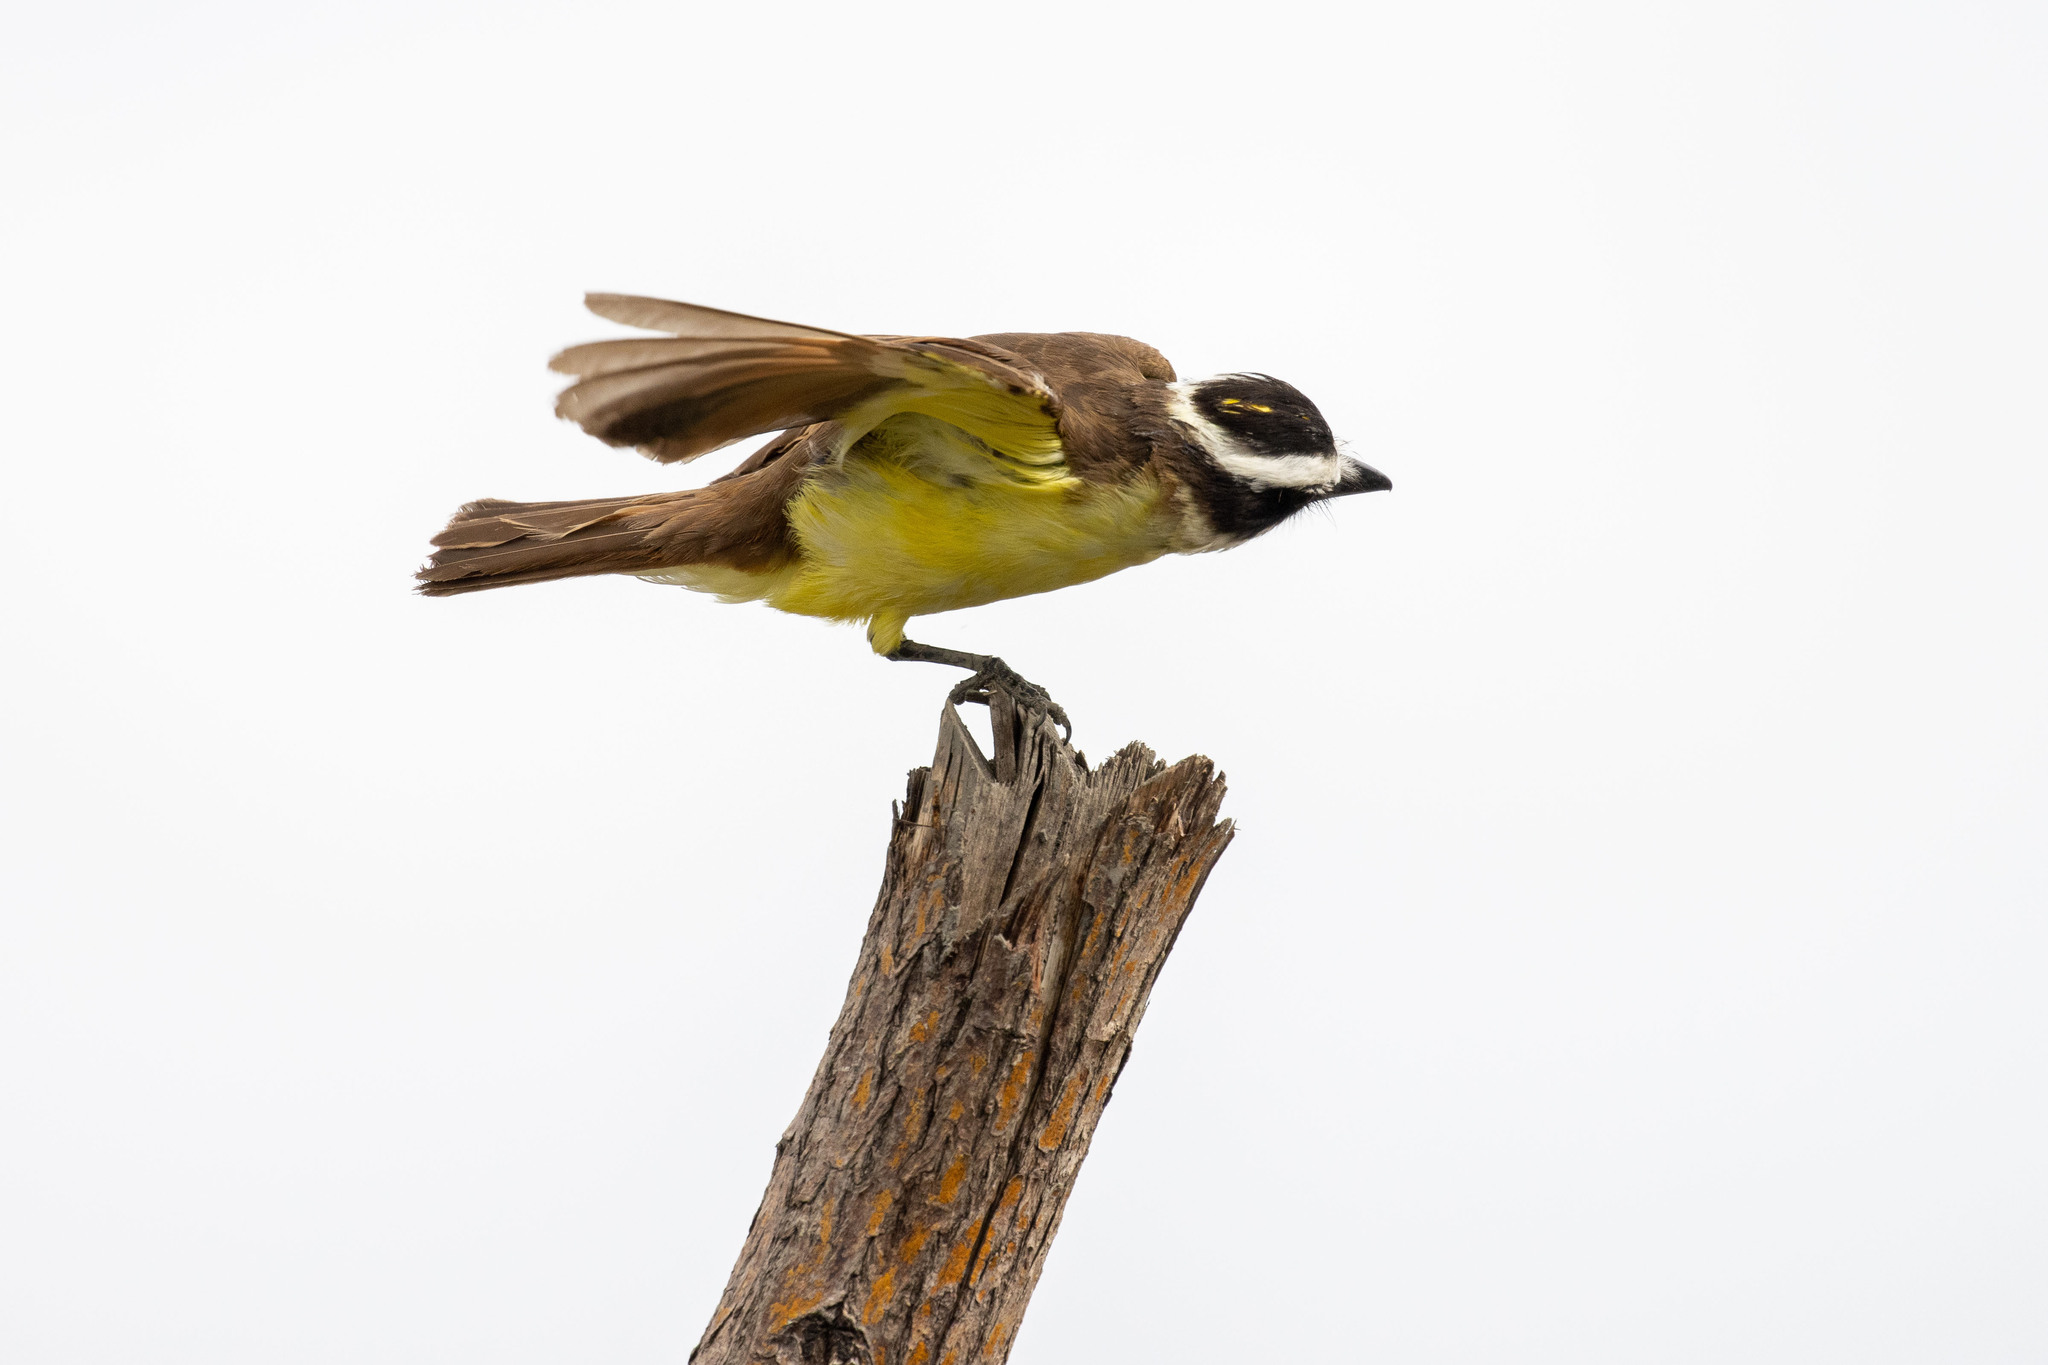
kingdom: Animalia
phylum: Chordata
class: Aves
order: Passeriformes
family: Tyrannidae
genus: Pitangus
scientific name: Pitangus sulphuratus
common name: Great kiskadee
